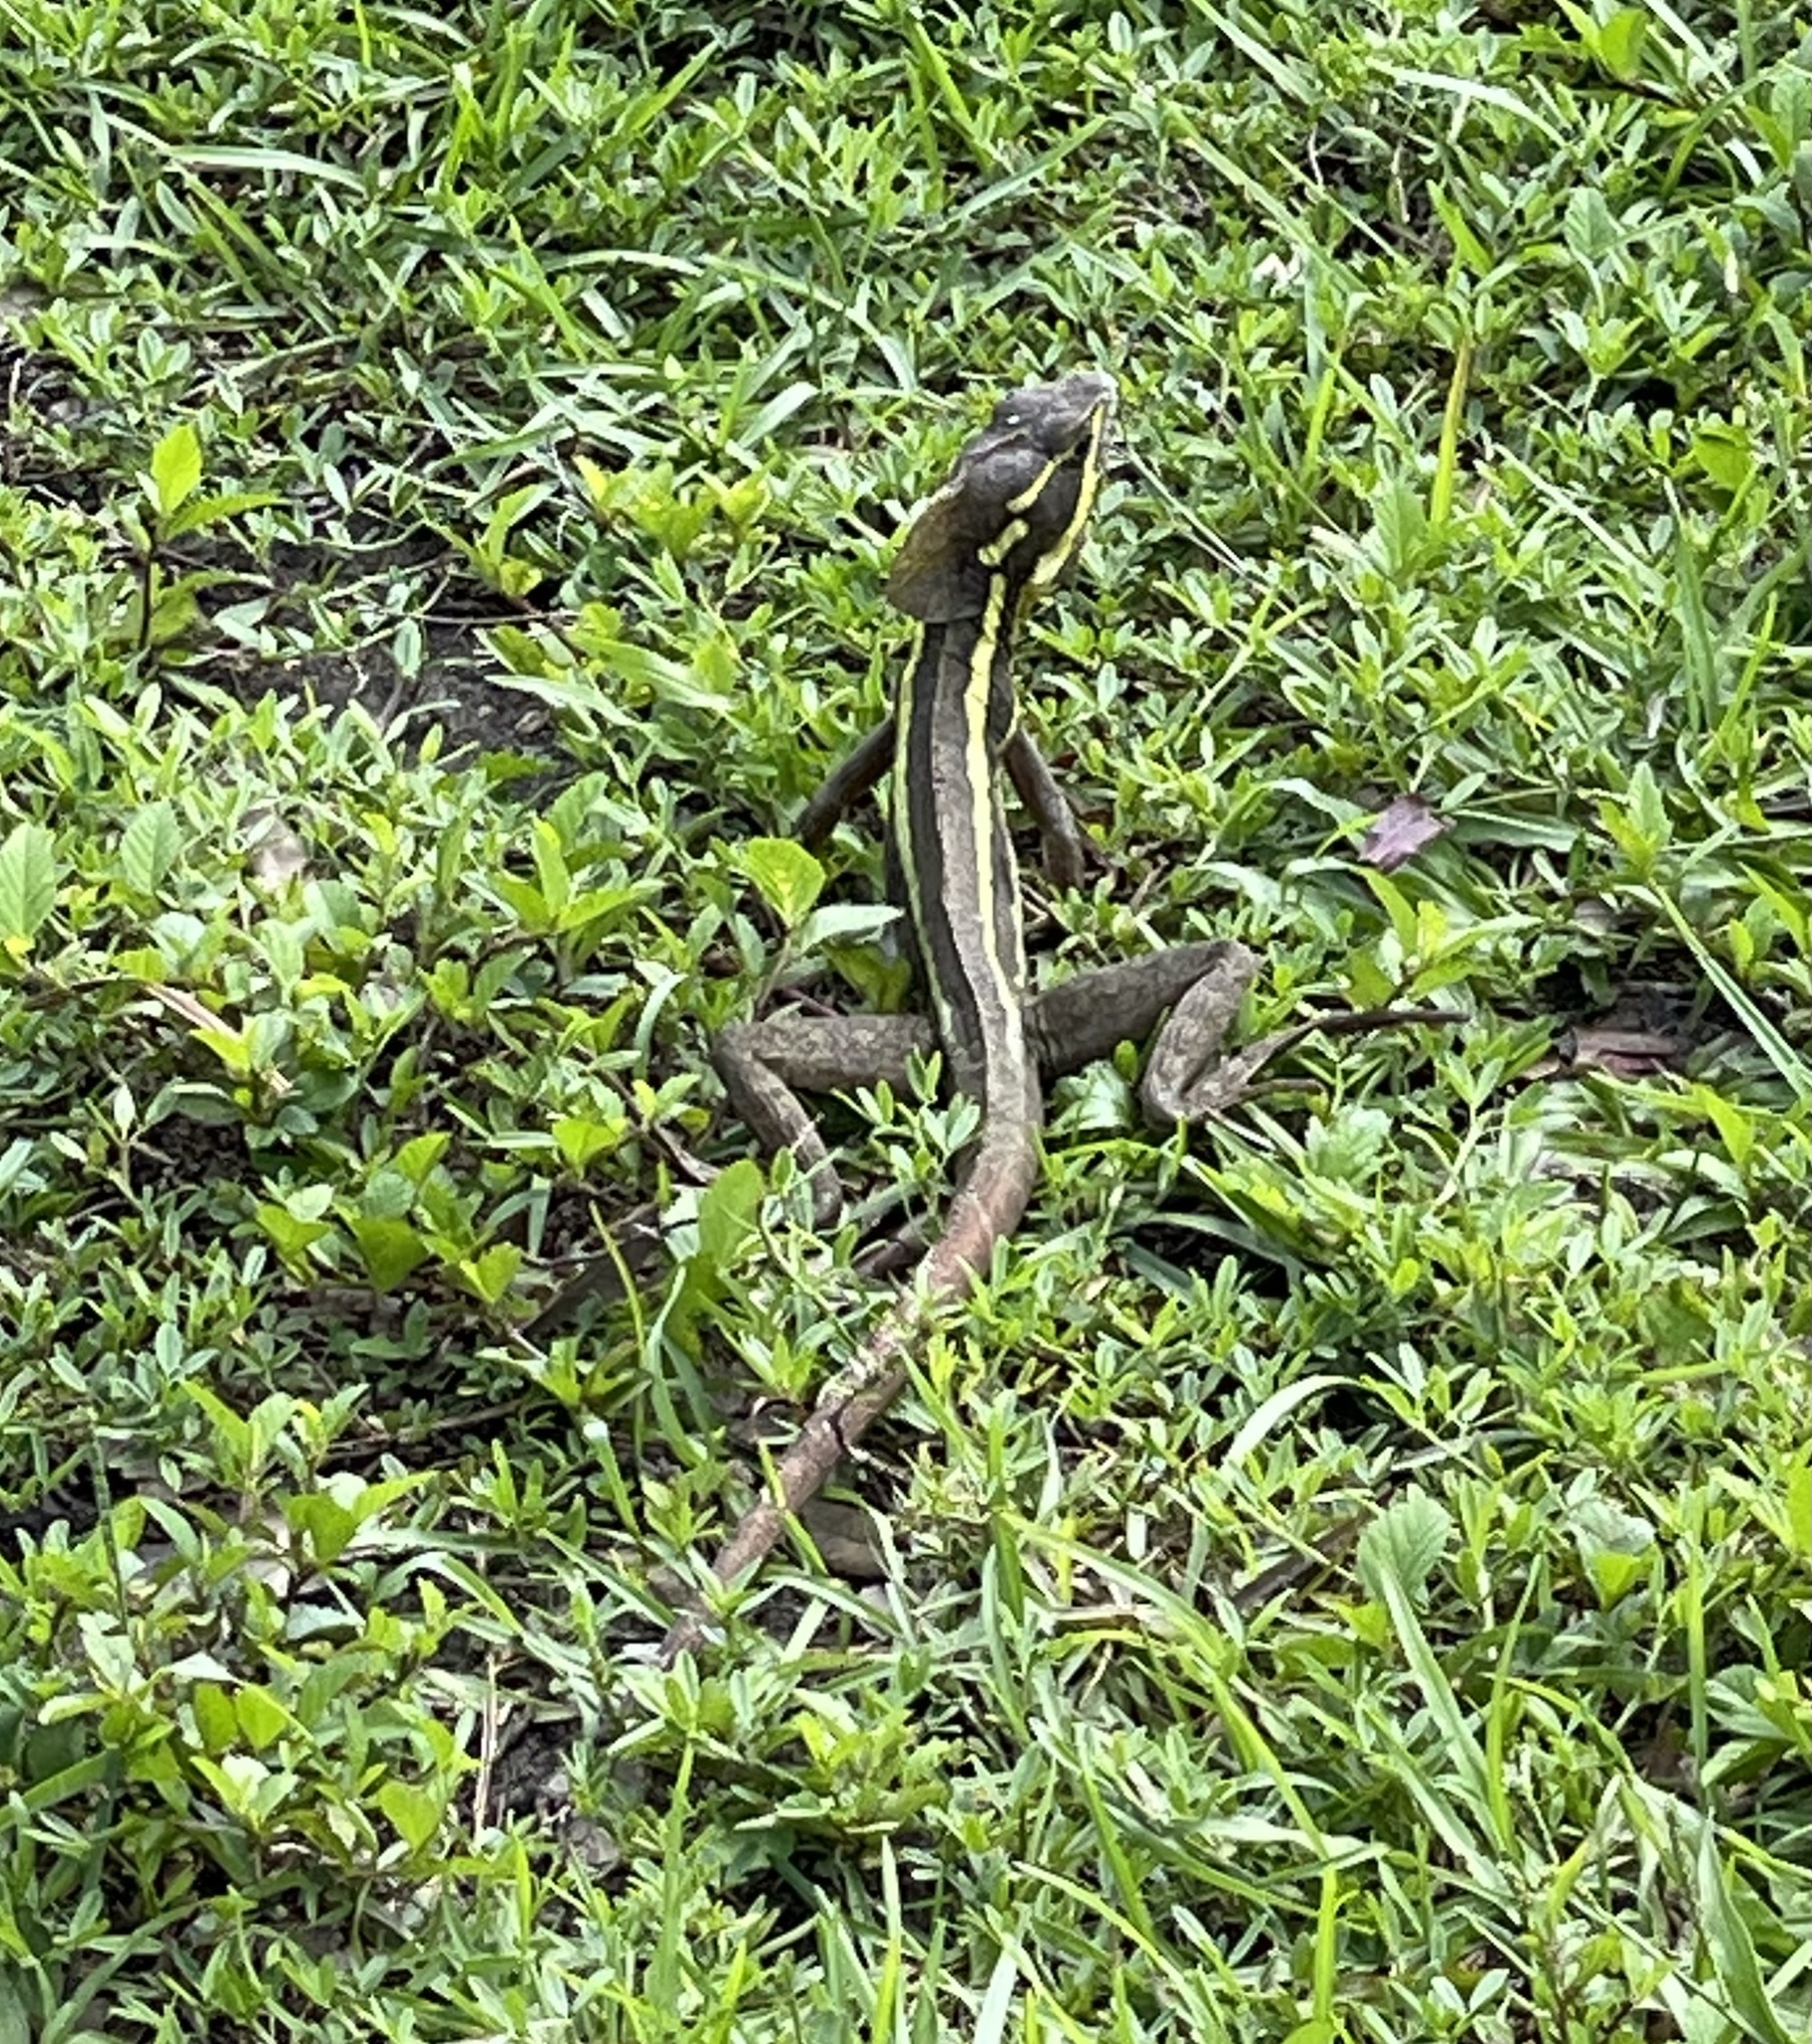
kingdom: Animalia
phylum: Chordata
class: Squamata
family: Corytophanidae
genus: Basiliscus
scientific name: Basiliscus vittatus
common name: Brown basilisk
